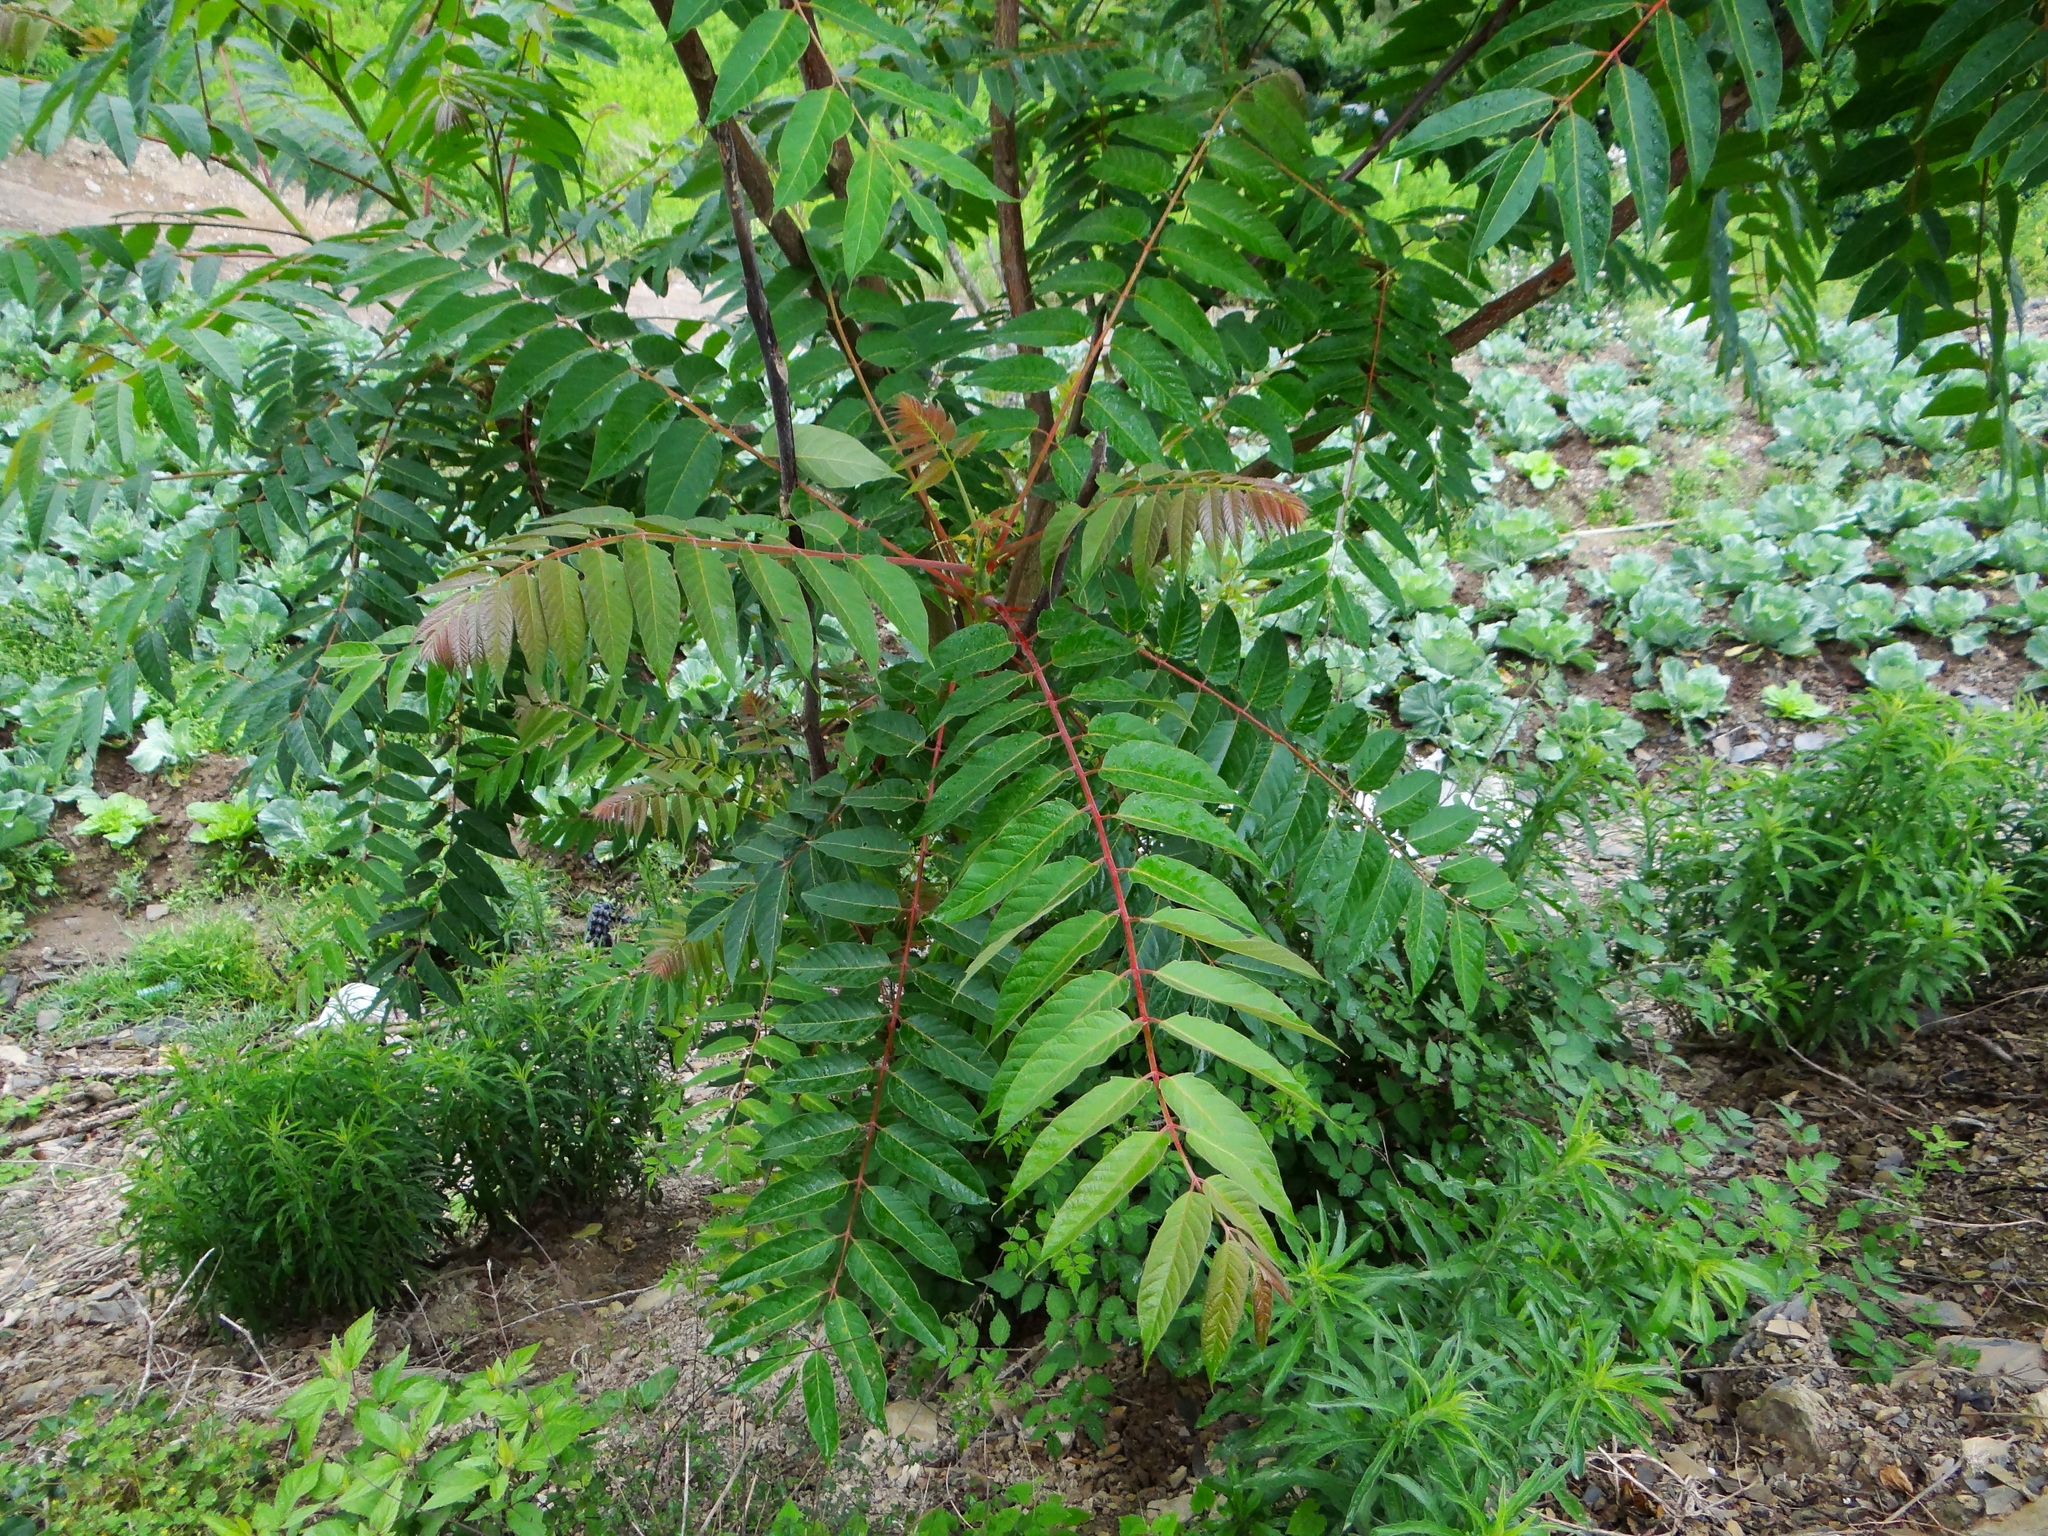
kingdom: Plantae
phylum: Tracheophyta
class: Magnoliopsida
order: Sapindales
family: Simaroubaceae
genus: Ailanthus
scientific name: Ailanthus altissima
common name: Tree-of-heaven
